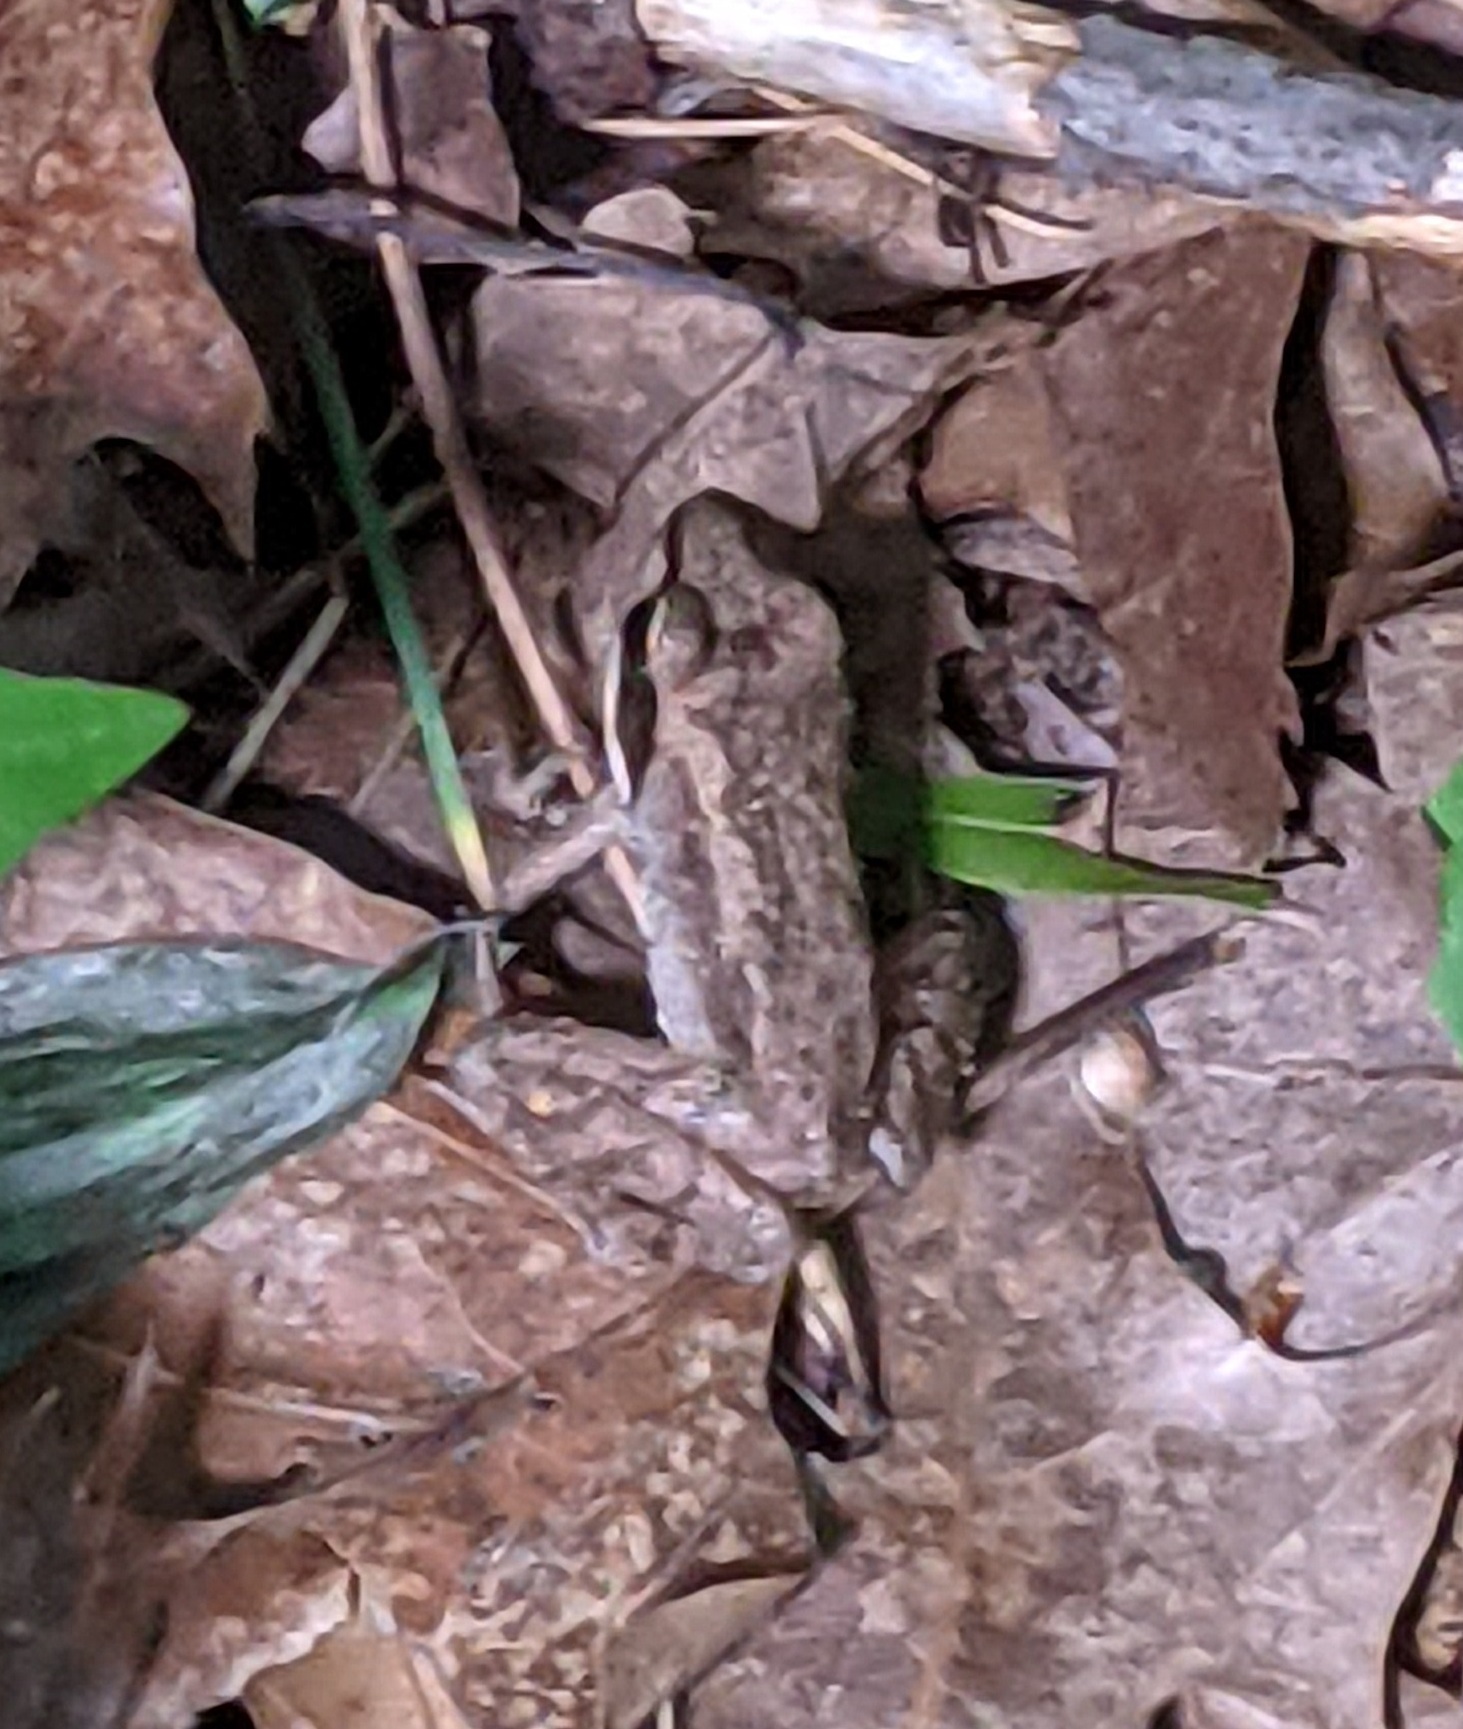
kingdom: Animalia
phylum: Chordata
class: Amphibia
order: Anura
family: Ranidae
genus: Lithobates
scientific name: Lithobates sylvaticus
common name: Wood frog
